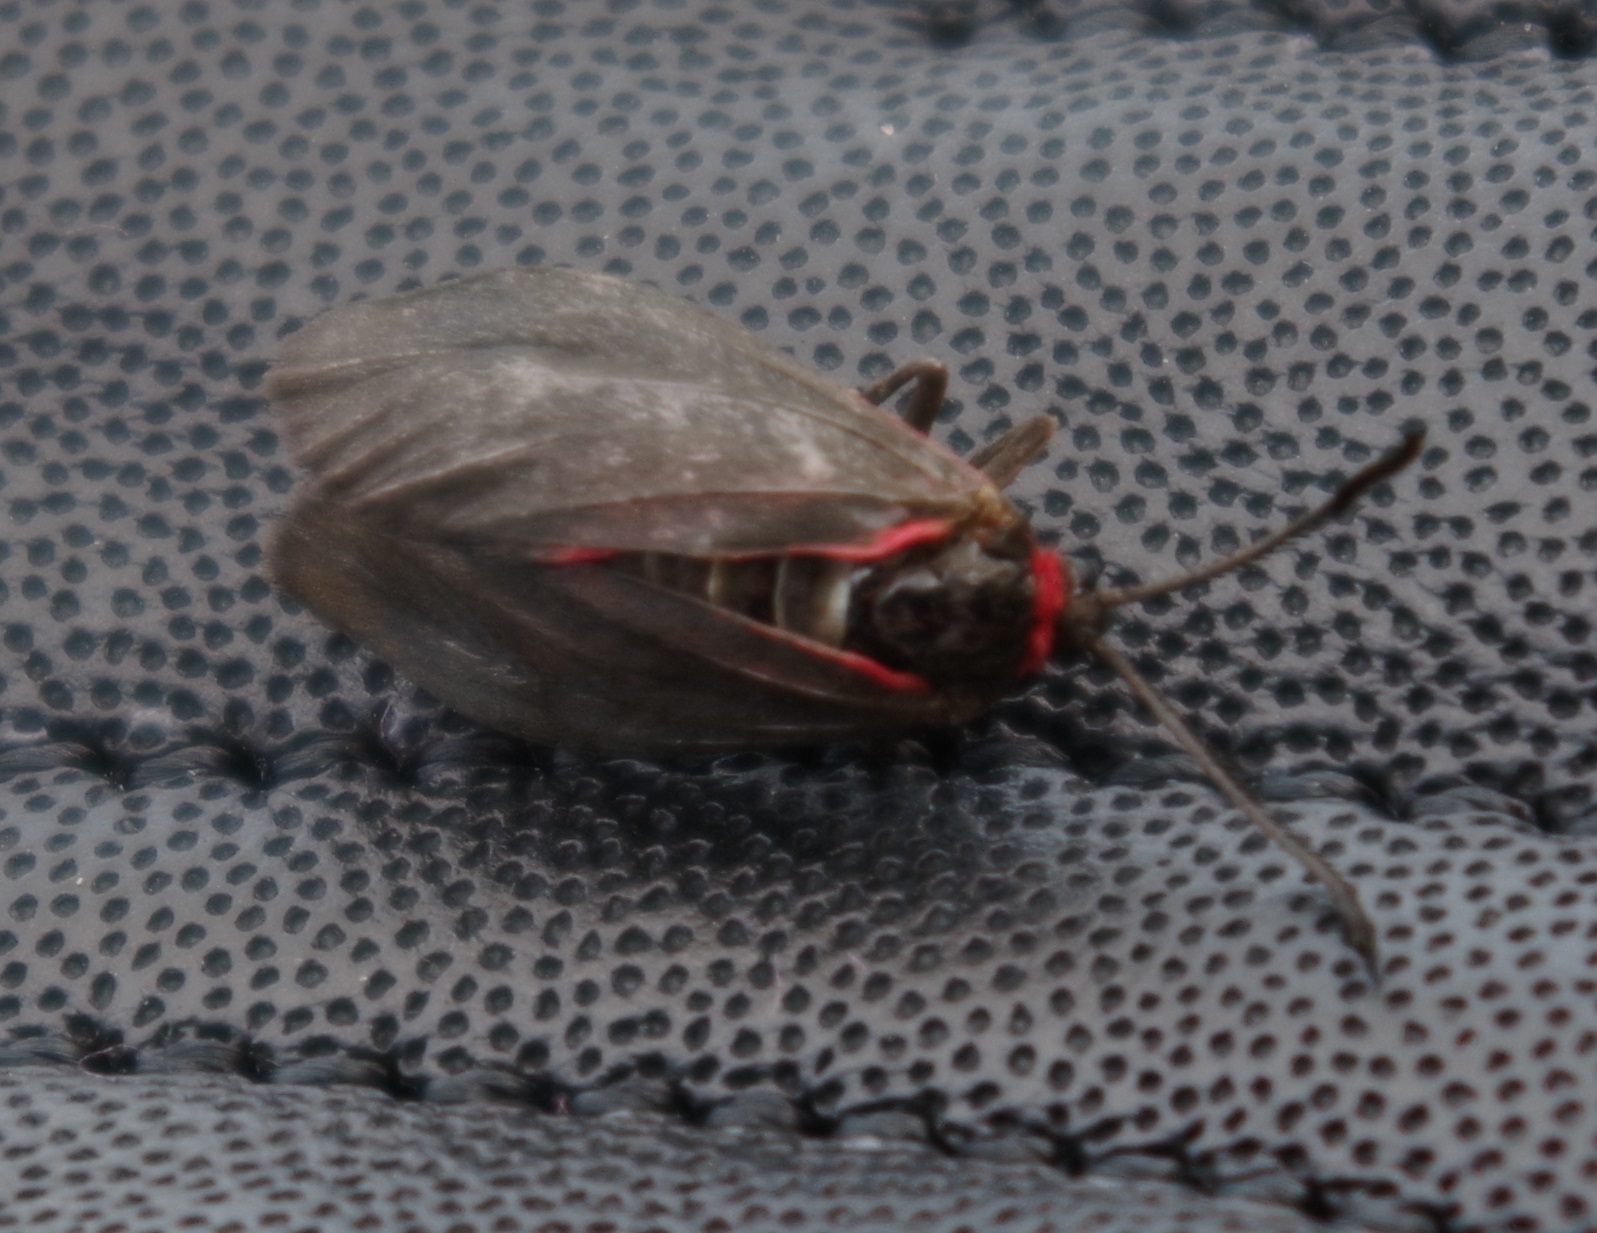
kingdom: Animalia
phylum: Arthropoda
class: Insecta
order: Lepidoptera
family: Zygaenidae
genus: Aglaope
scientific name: Aglaope infausta
